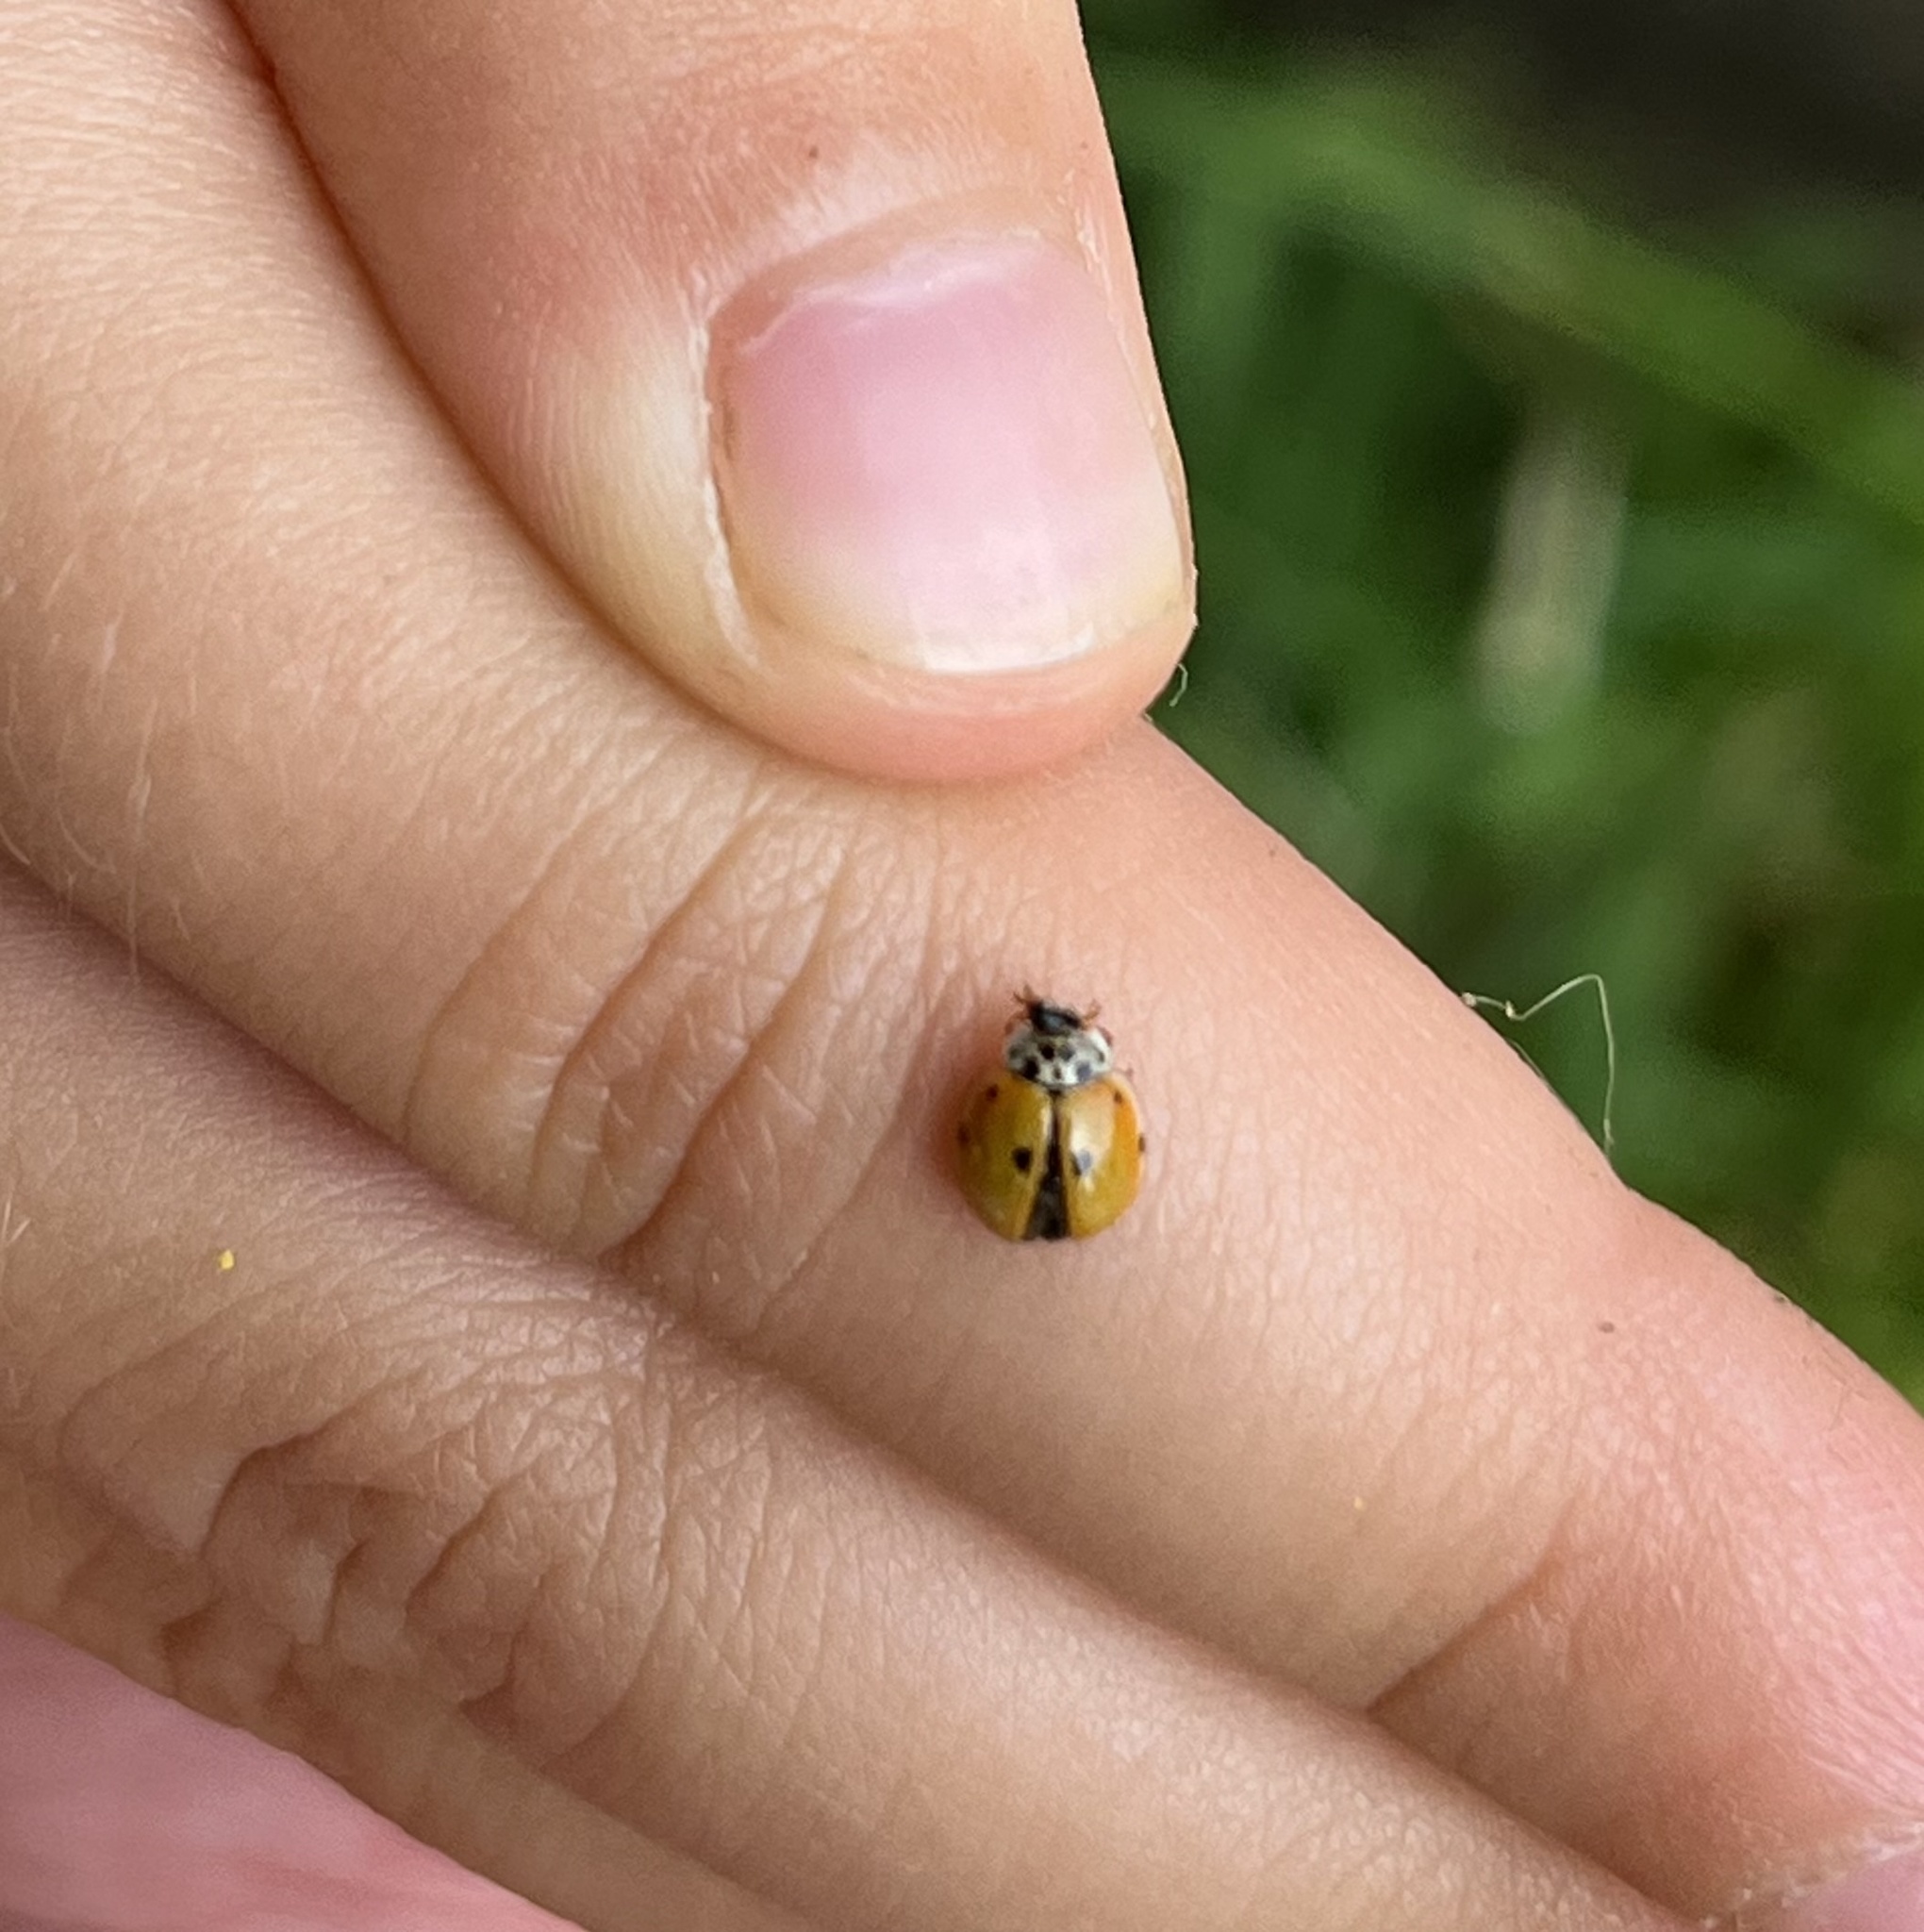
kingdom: Animalia
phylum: Arthropoda
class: Insecta
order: Coleoptera
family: Coccinellidae
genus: Adalia
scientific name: Adalia decempunctata
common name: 10-spot ladybird
